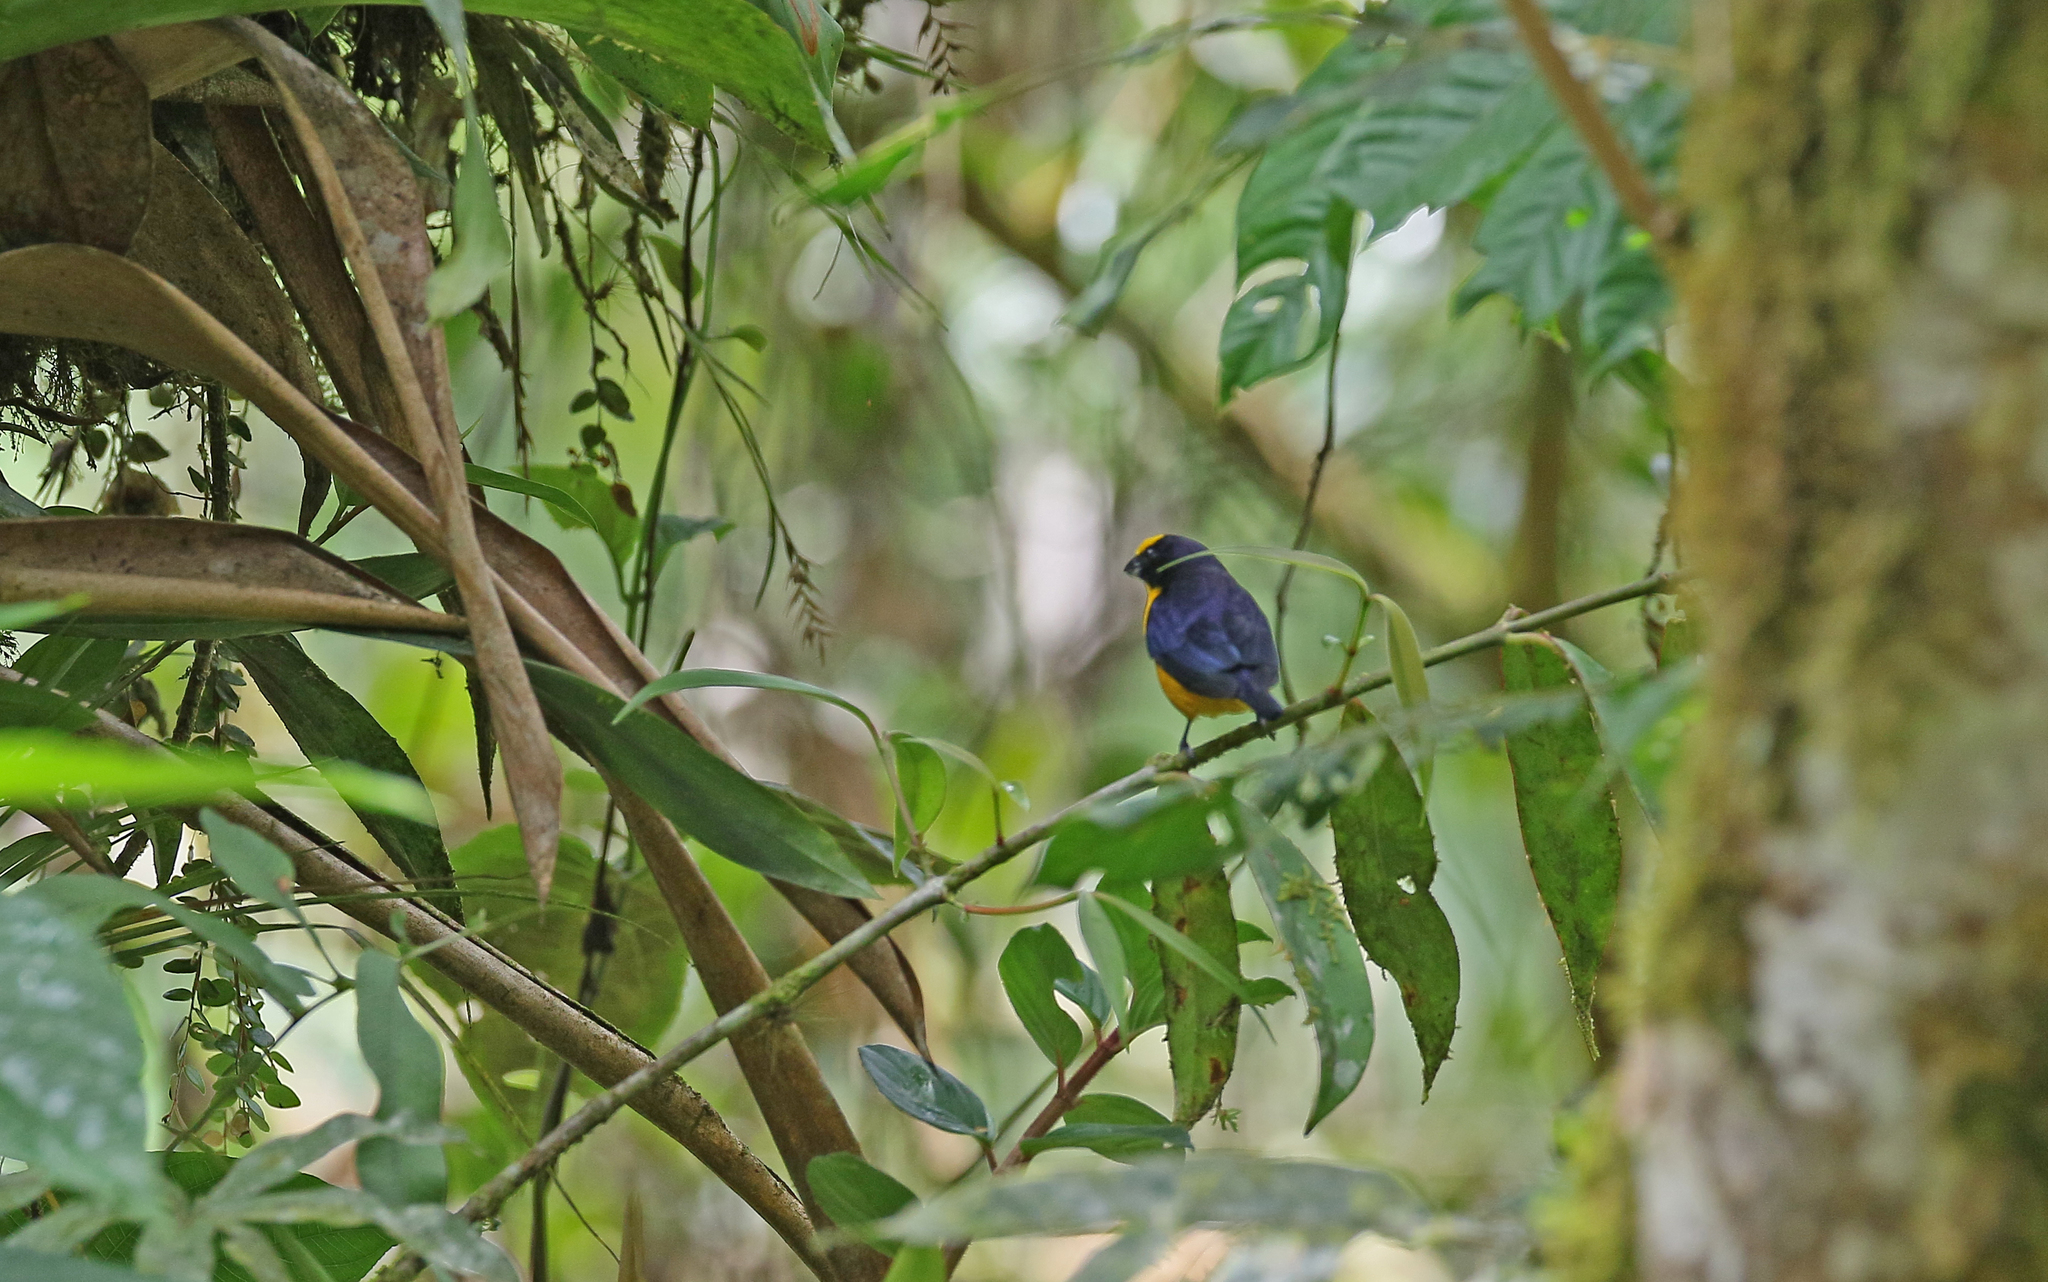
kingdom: Animalia
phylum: Chordata
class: Aves
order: Passeriformes
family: Fringillidae
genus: Euphonia
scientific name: Euphonia laniirostris
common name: Thick-billed euphonia
